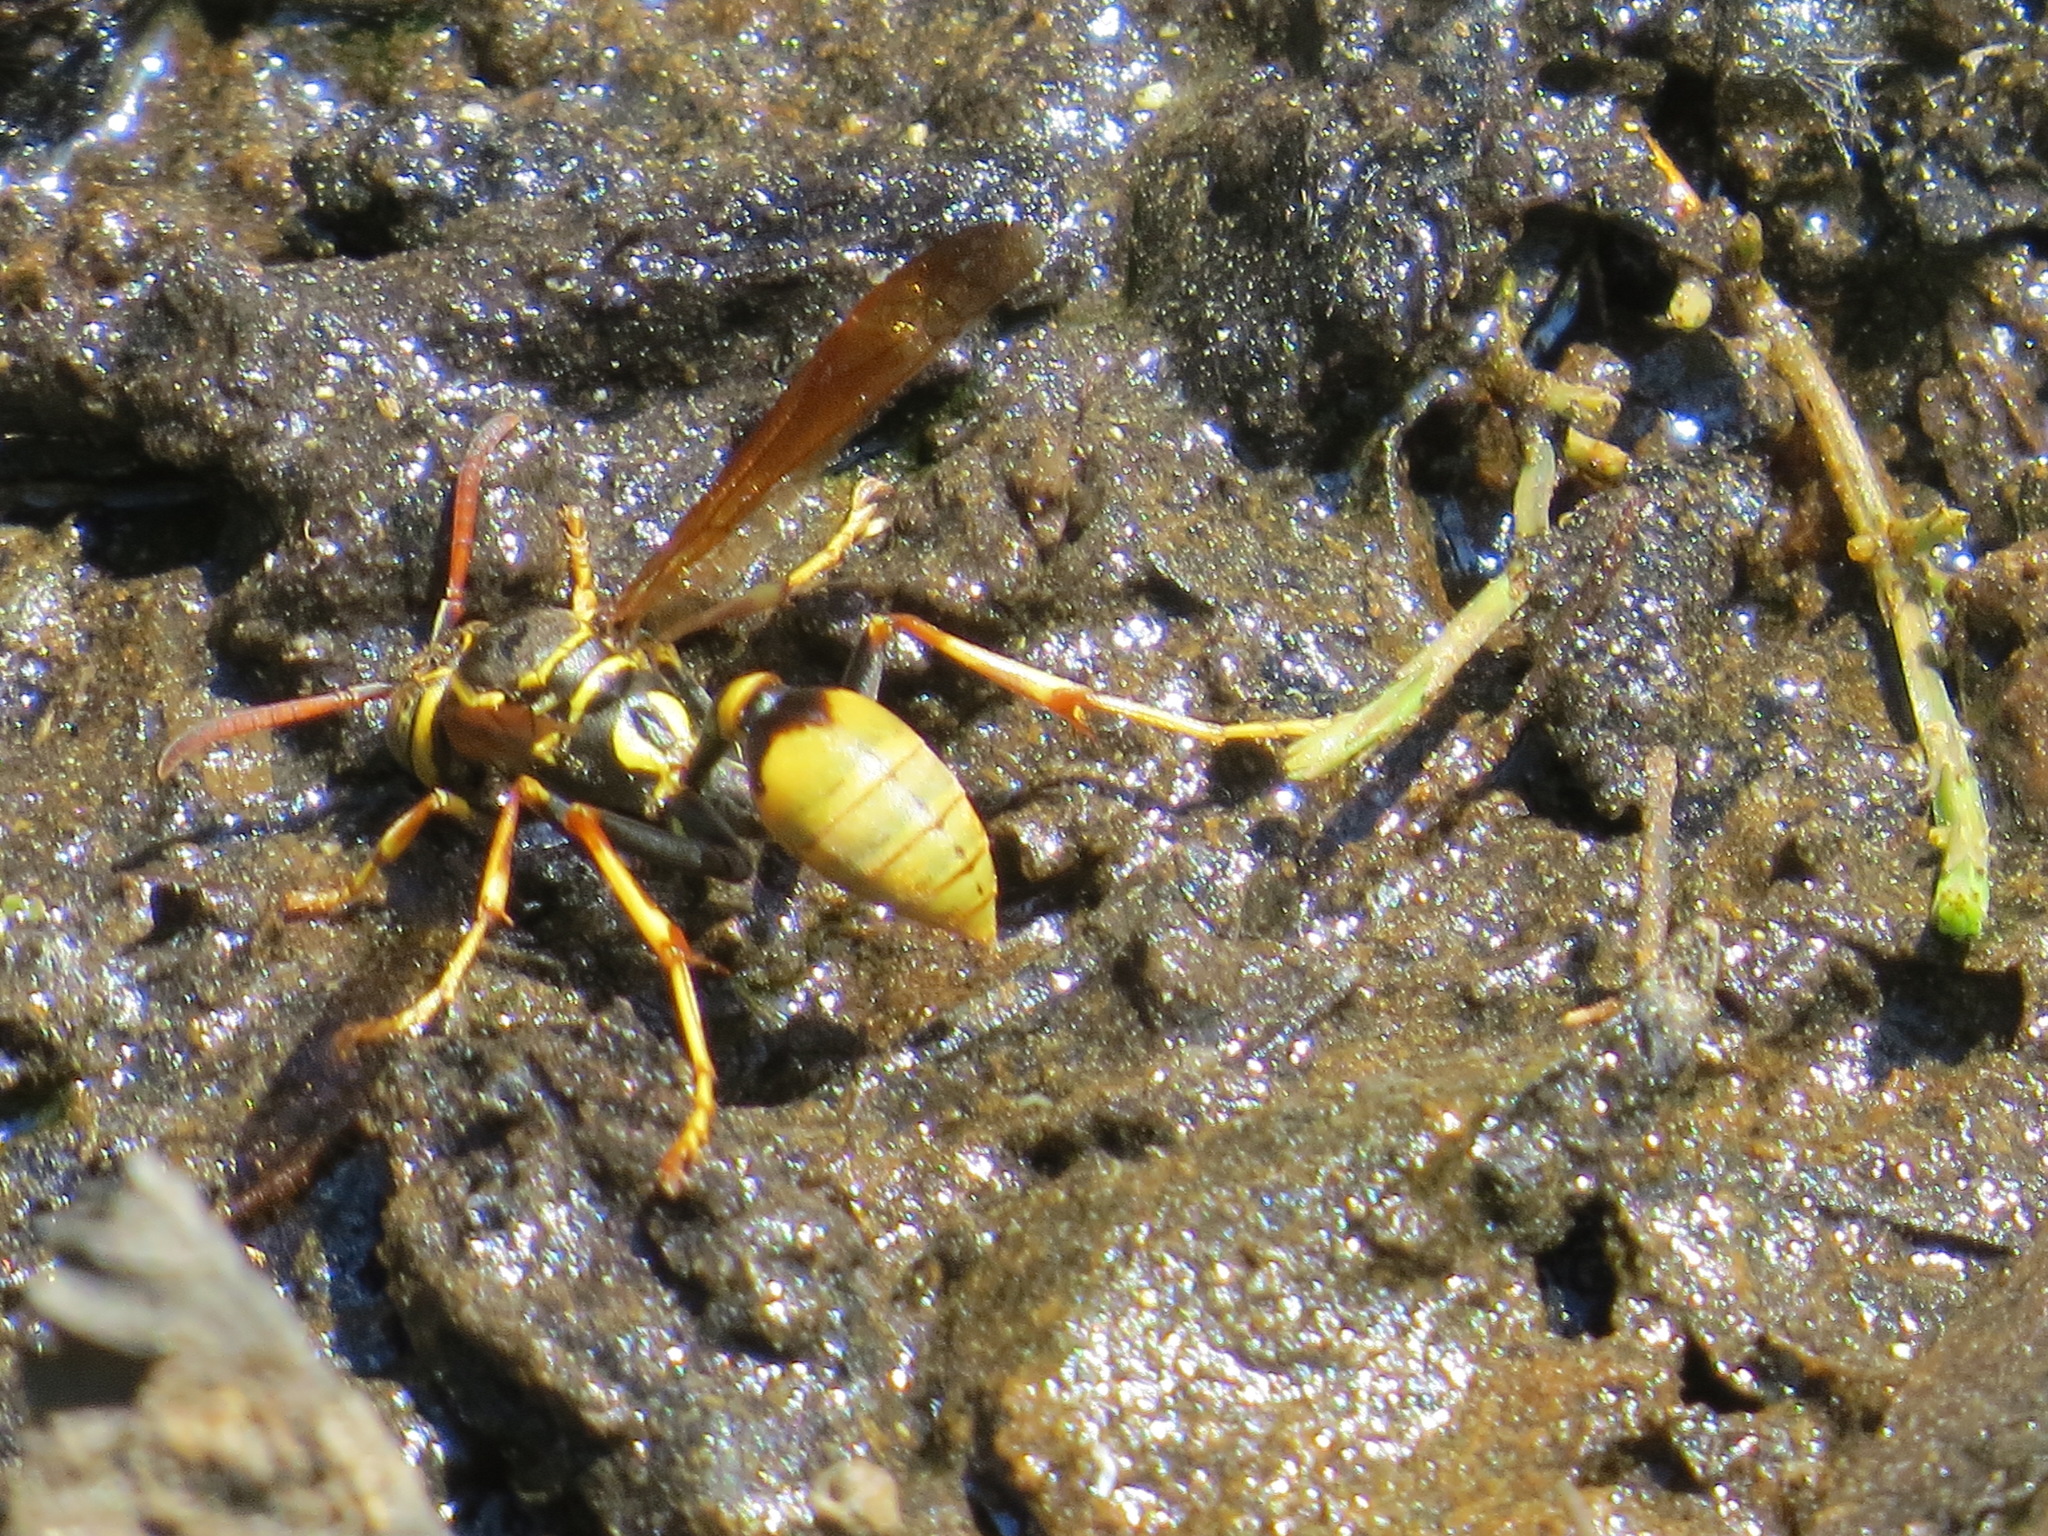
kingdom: Animalia
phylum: Arthropoda
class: Insecta
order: Hymenoptera
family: Vespidae
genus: Mischocyttarus
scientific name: Mischocyttarus flavitarsis
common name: Wasp
